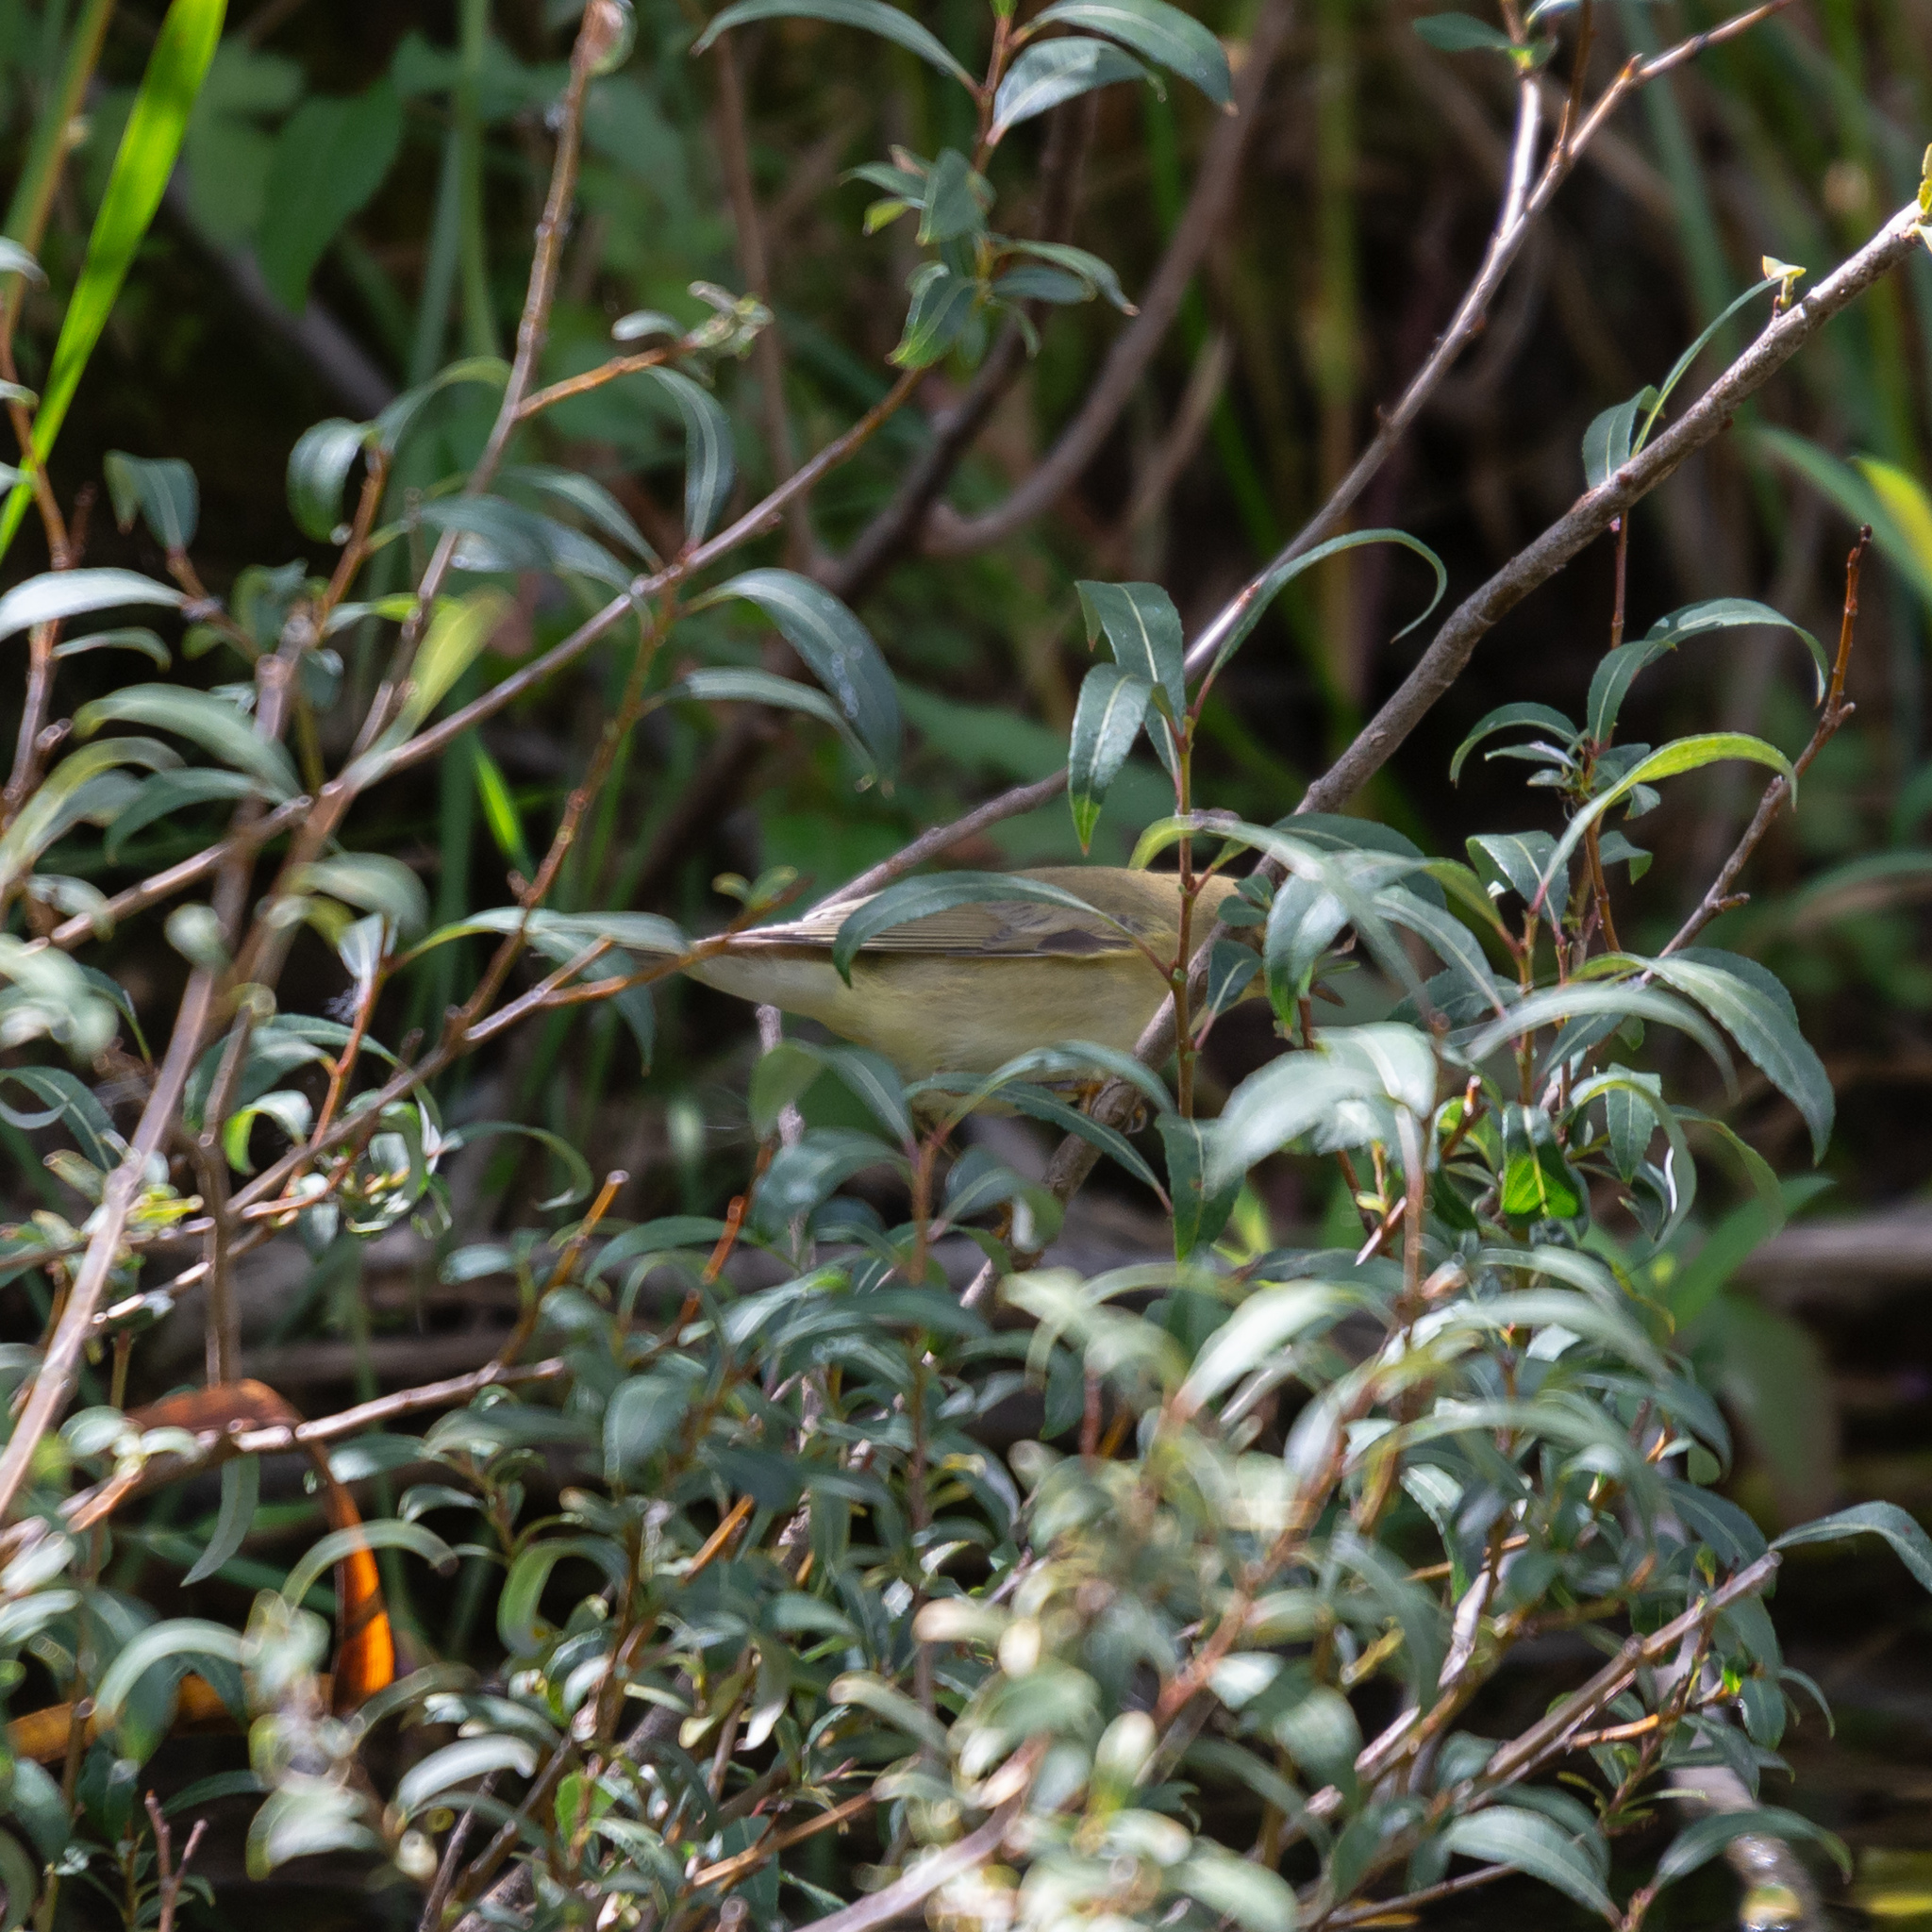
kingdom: Animalia
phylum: Chordata
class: Aves
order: Passeriformes
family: Phylloscopidae
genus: Phylloscopus
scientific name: Phylloscopus trochilus
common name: Willow warbler
